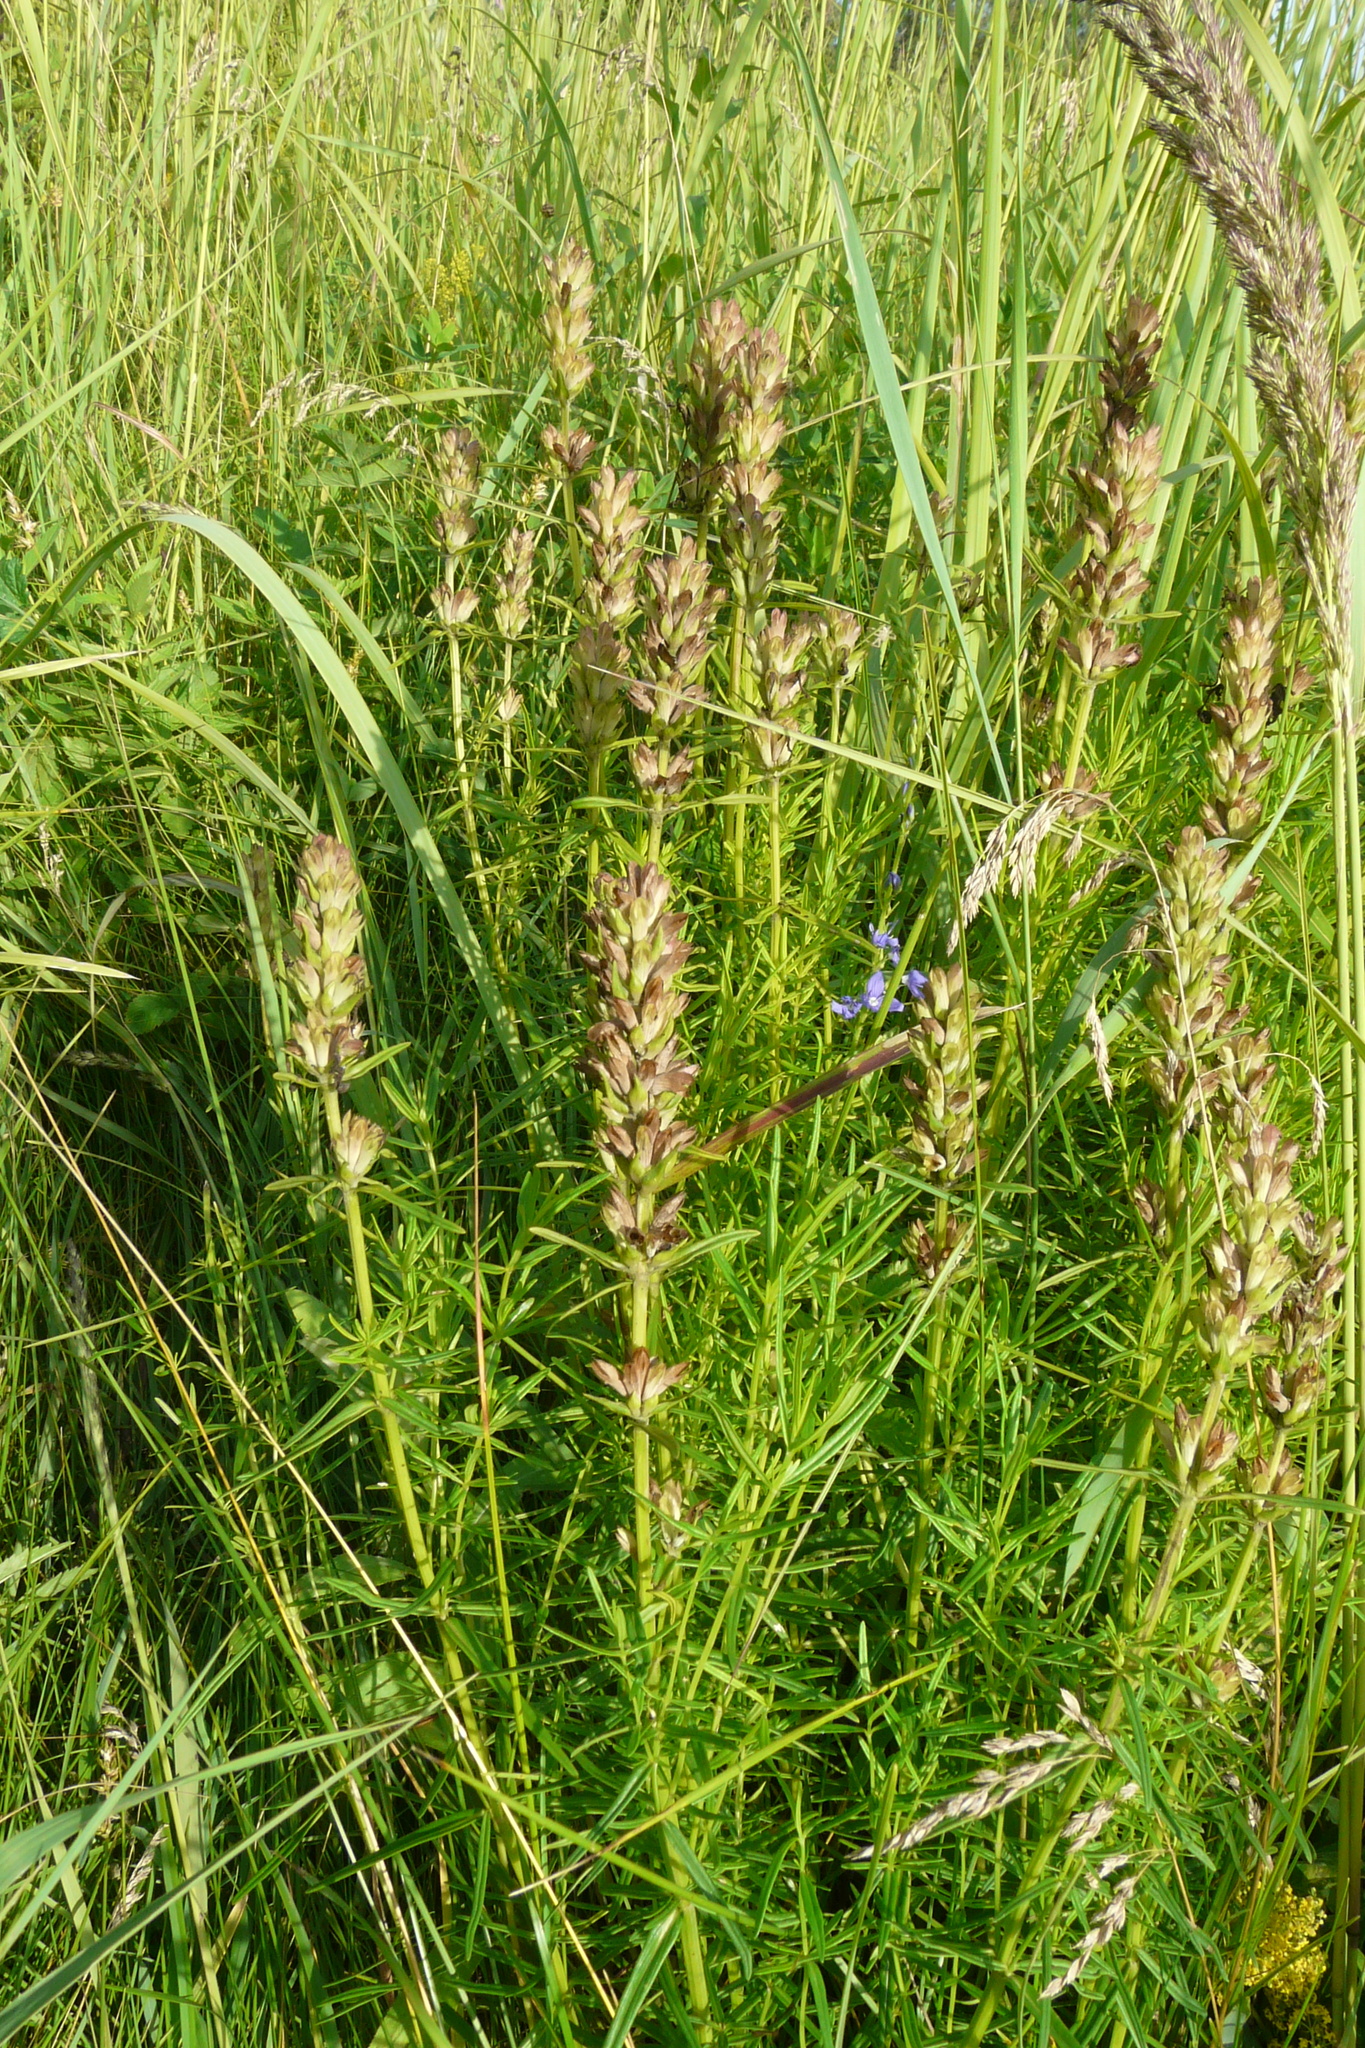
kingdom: Plantae
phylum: Tracheophyta
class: Magnoliopsida
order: Lamiales
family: Lamiaceae
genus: Dracocephalum
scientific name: Dracocephalum ruyschiana
